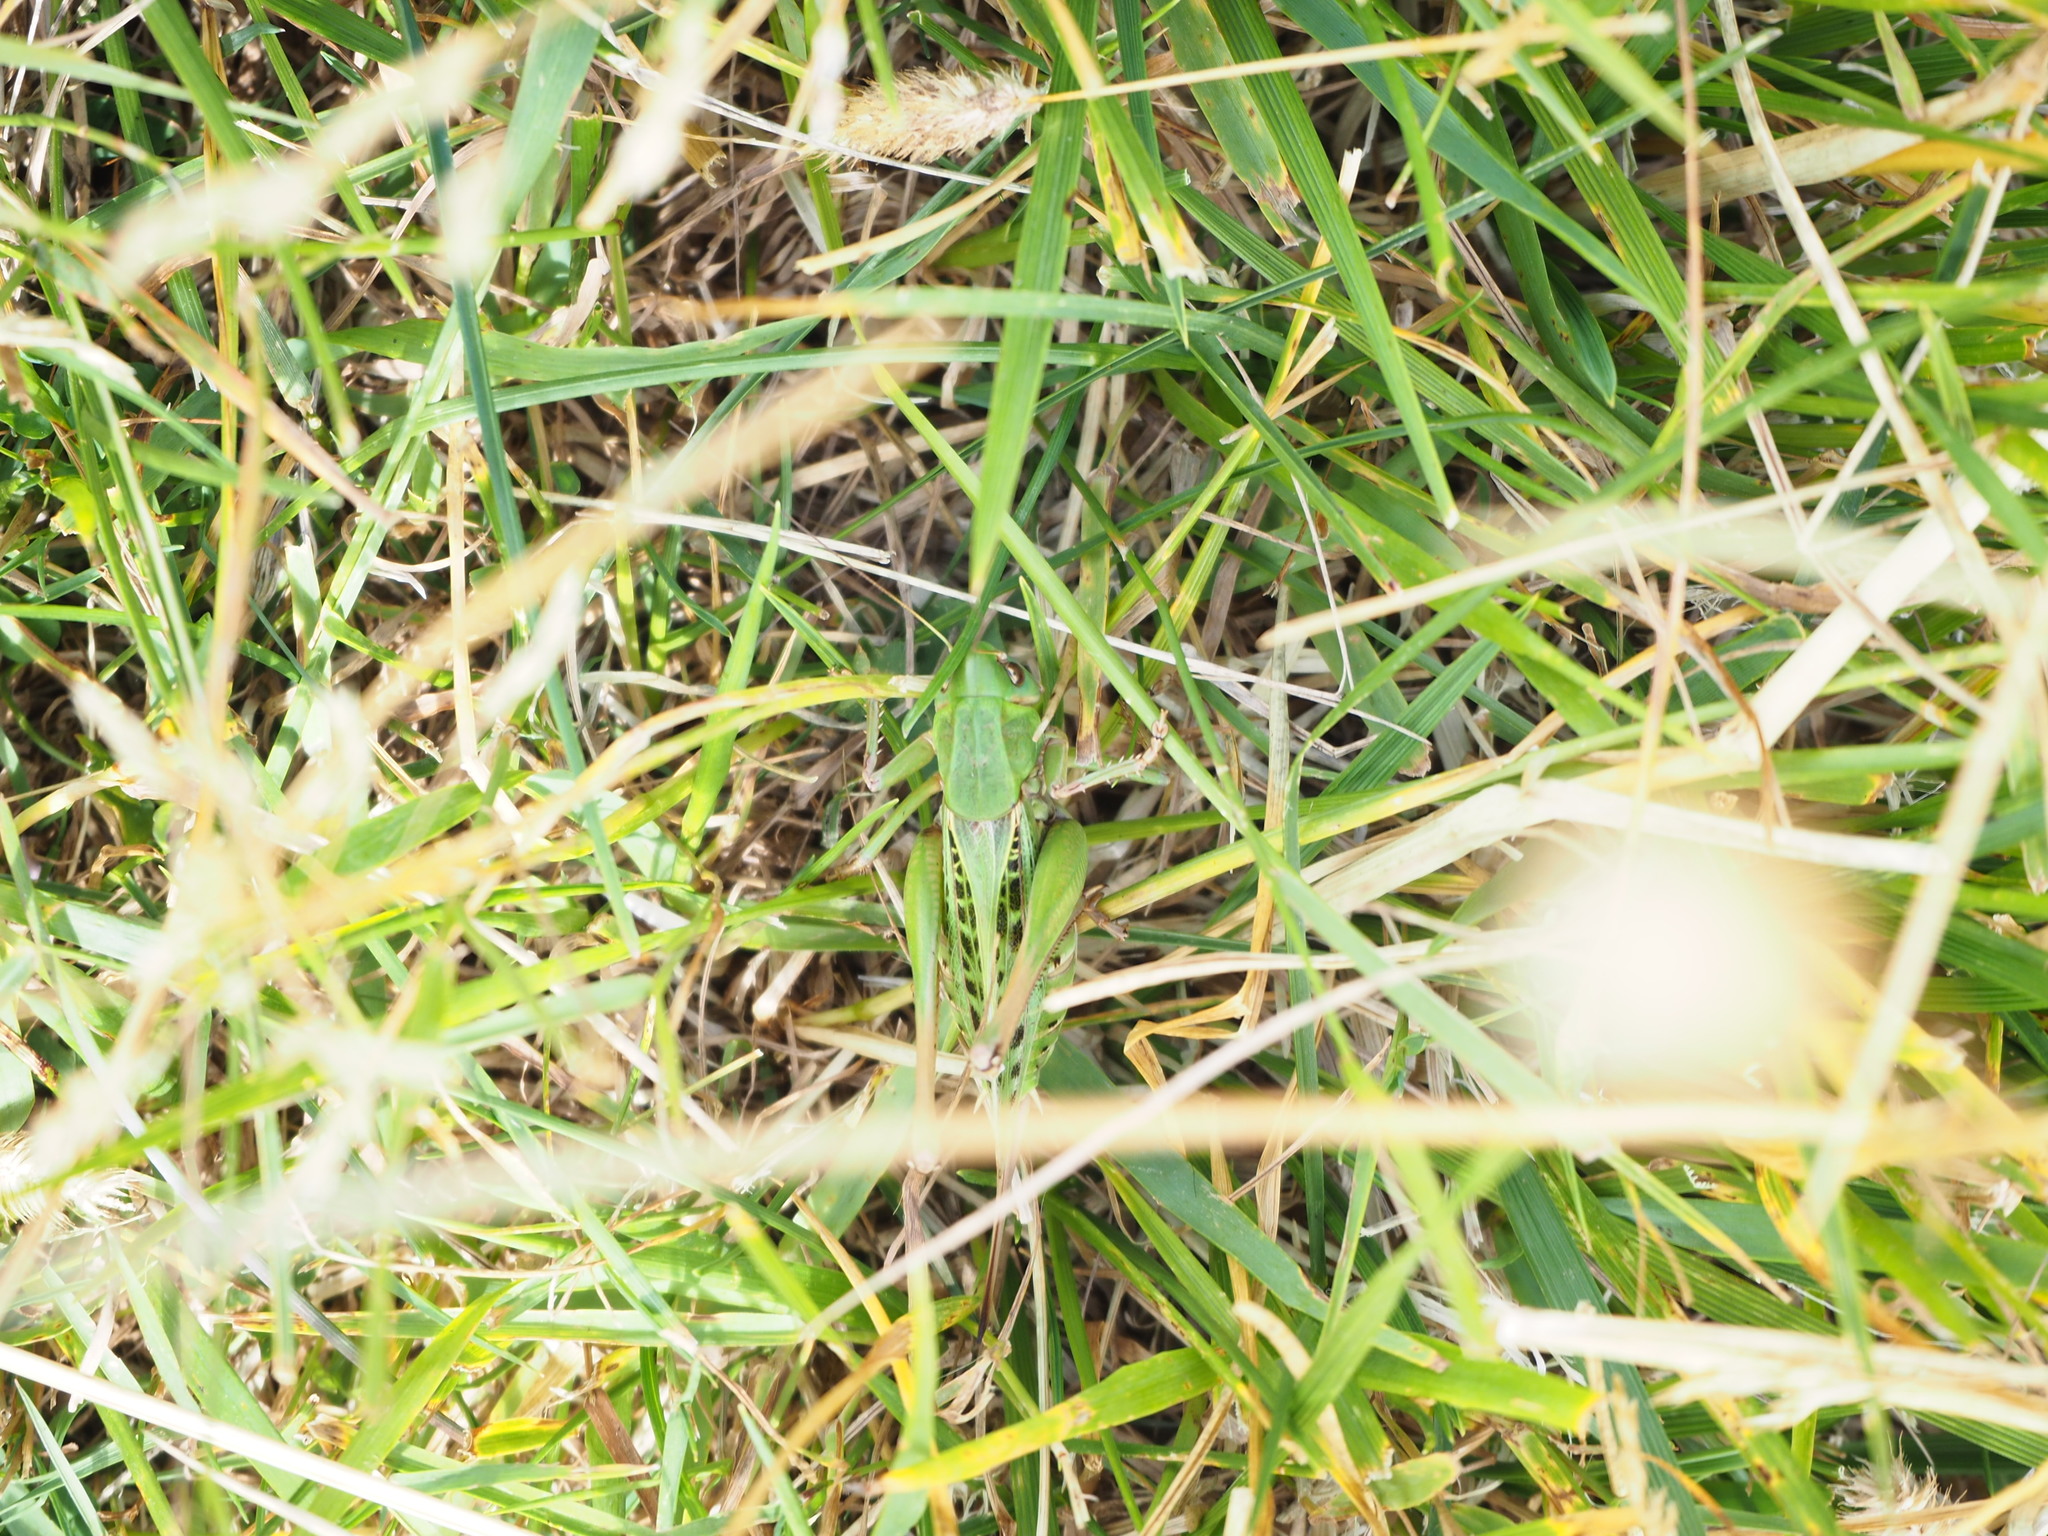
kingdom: Animalia
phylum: Arthropoda
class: Insecta
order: Orthoptera
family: Tettigoniidae
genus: Decticus
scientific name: Decticus verrucivorus
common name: Wart-biter
